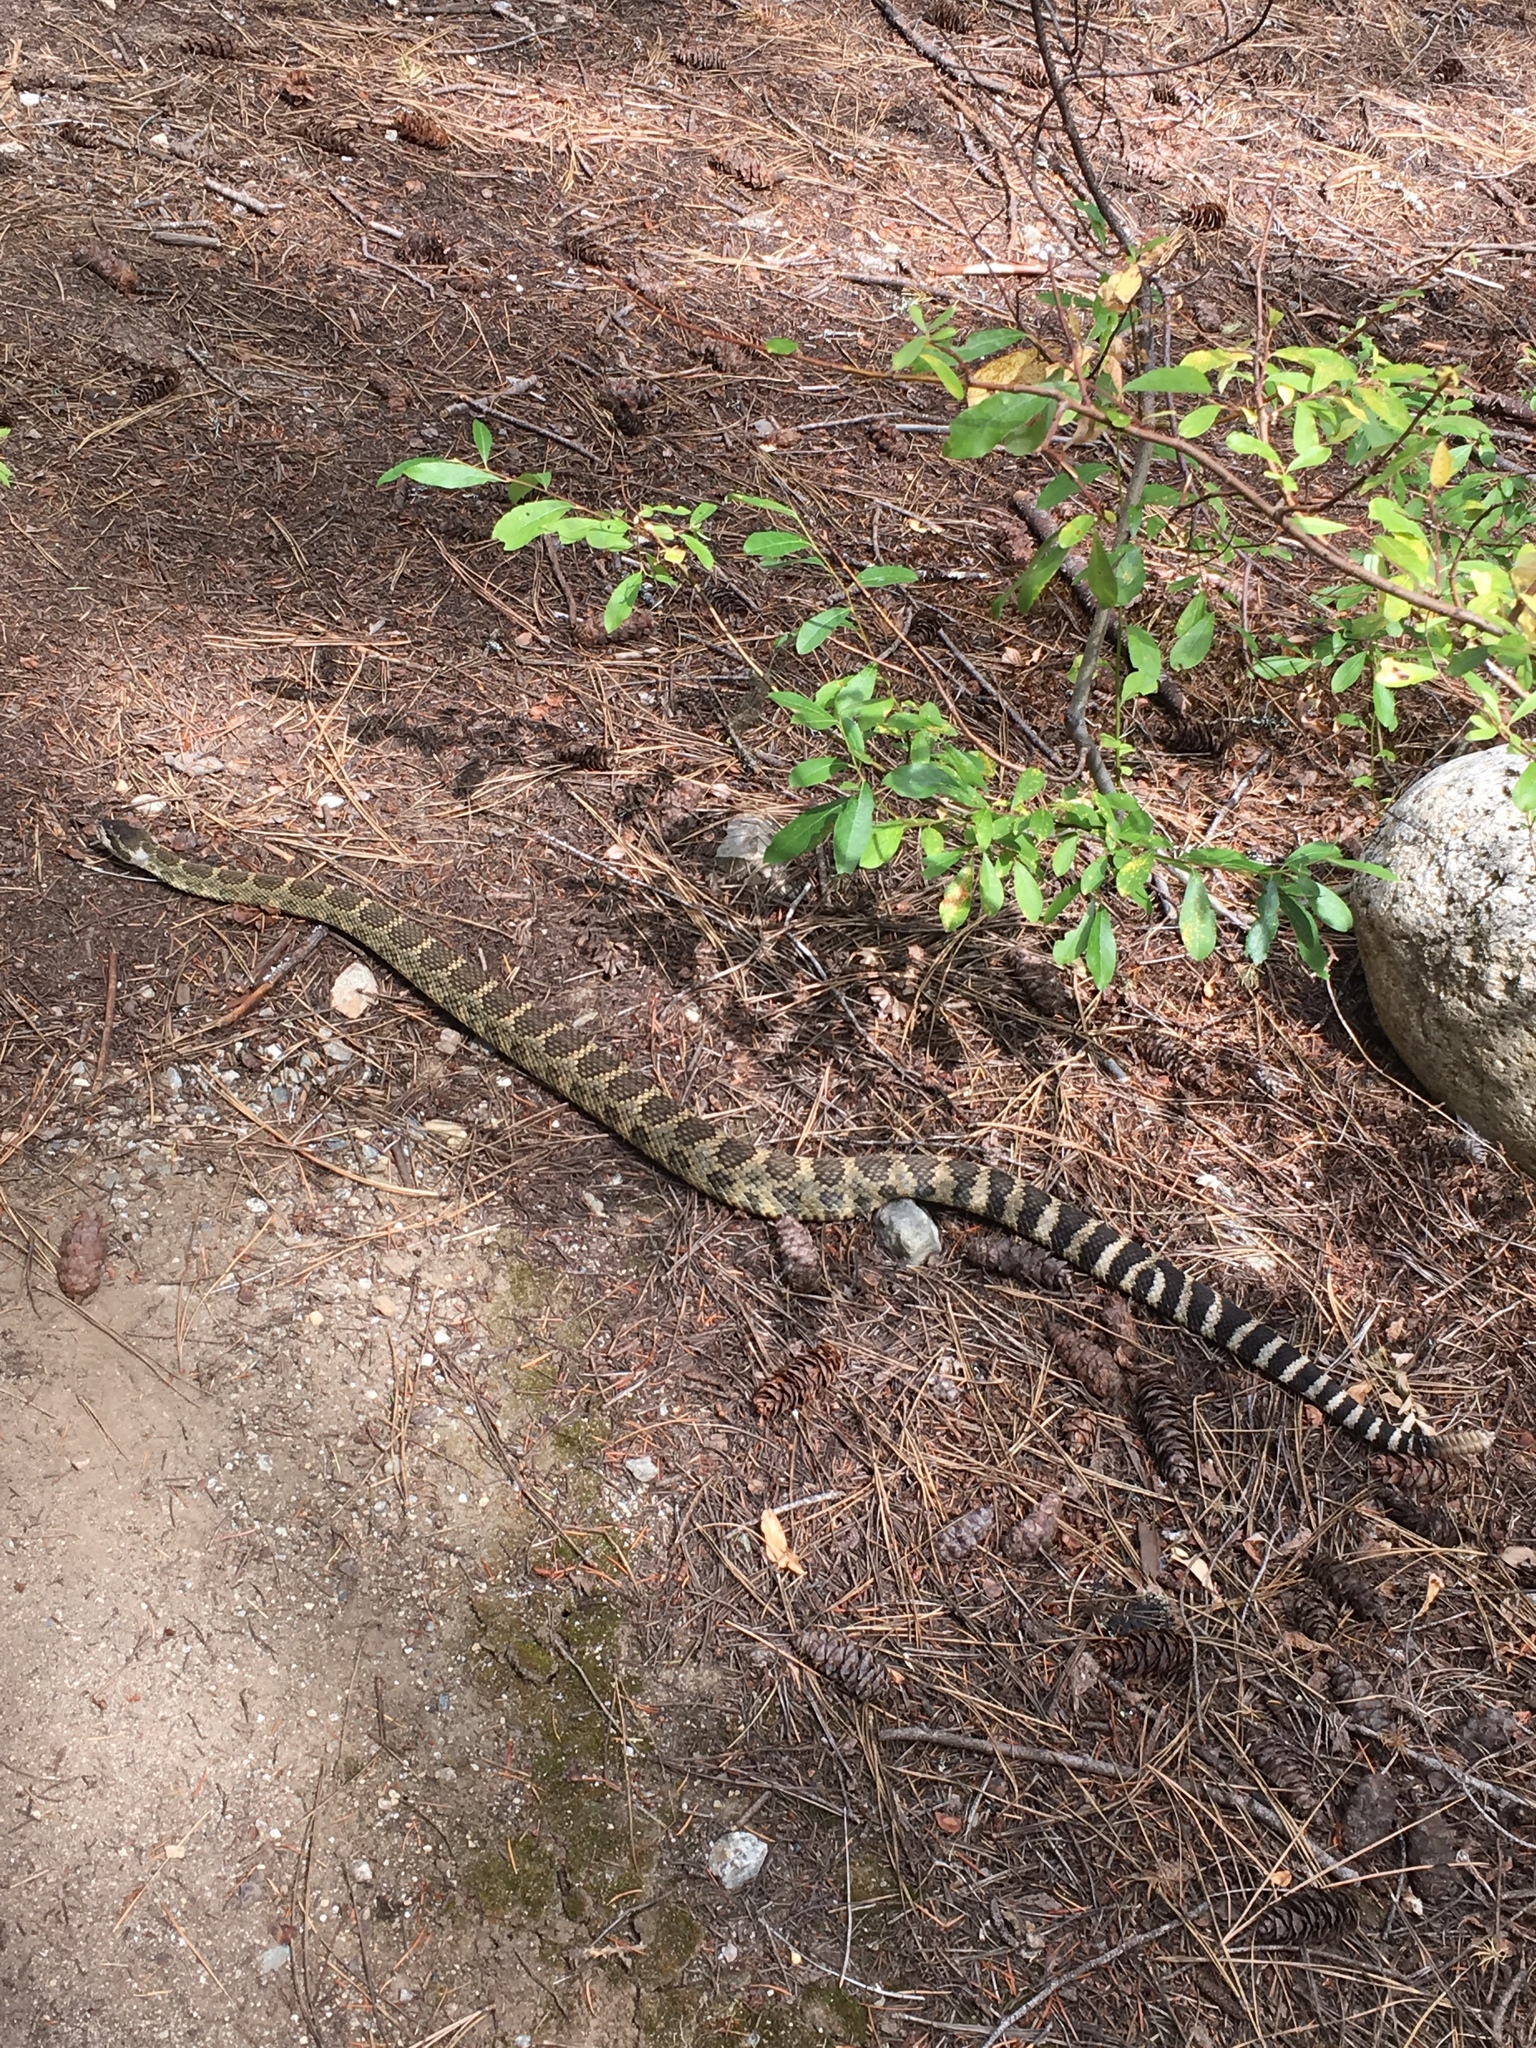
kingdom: Animalia
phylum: Chordata
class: Squamata
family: Viperidae
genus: Crotalus
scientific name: Crotalus oreganus
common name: Abyssus
